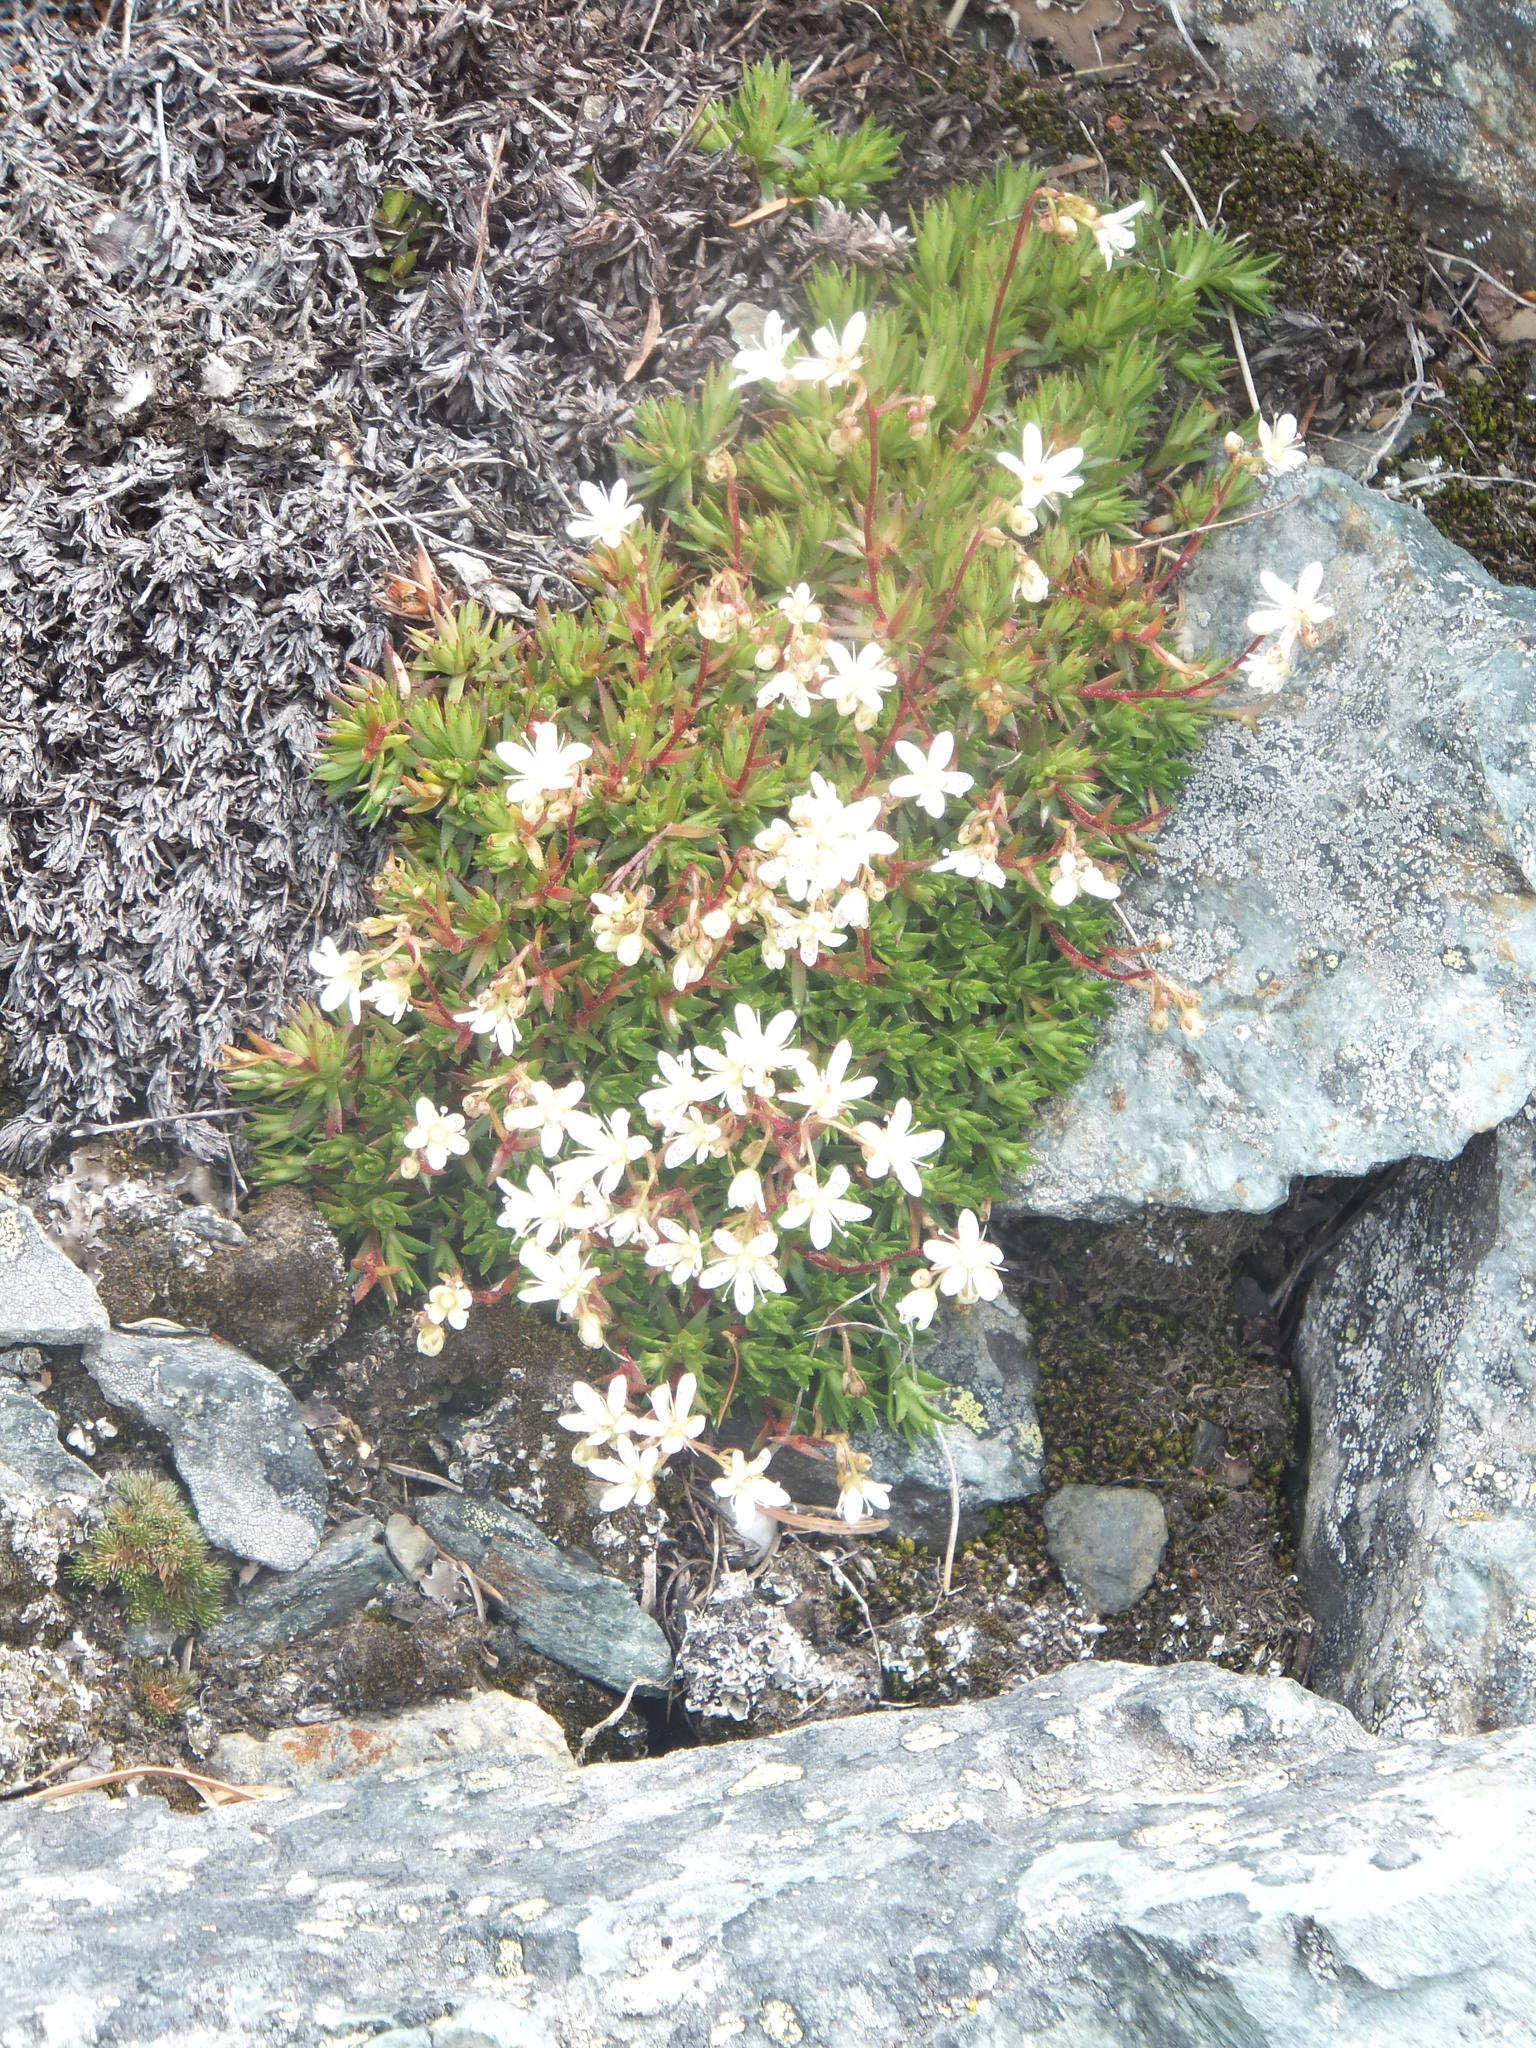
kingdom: Plantae
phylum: Tracheophyta
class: Magnoliopsida
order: Saxifragales
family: Saxifragaceae
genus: Saxifraga
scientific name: Saxifraga bronchialis
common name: Matted saxifrage
